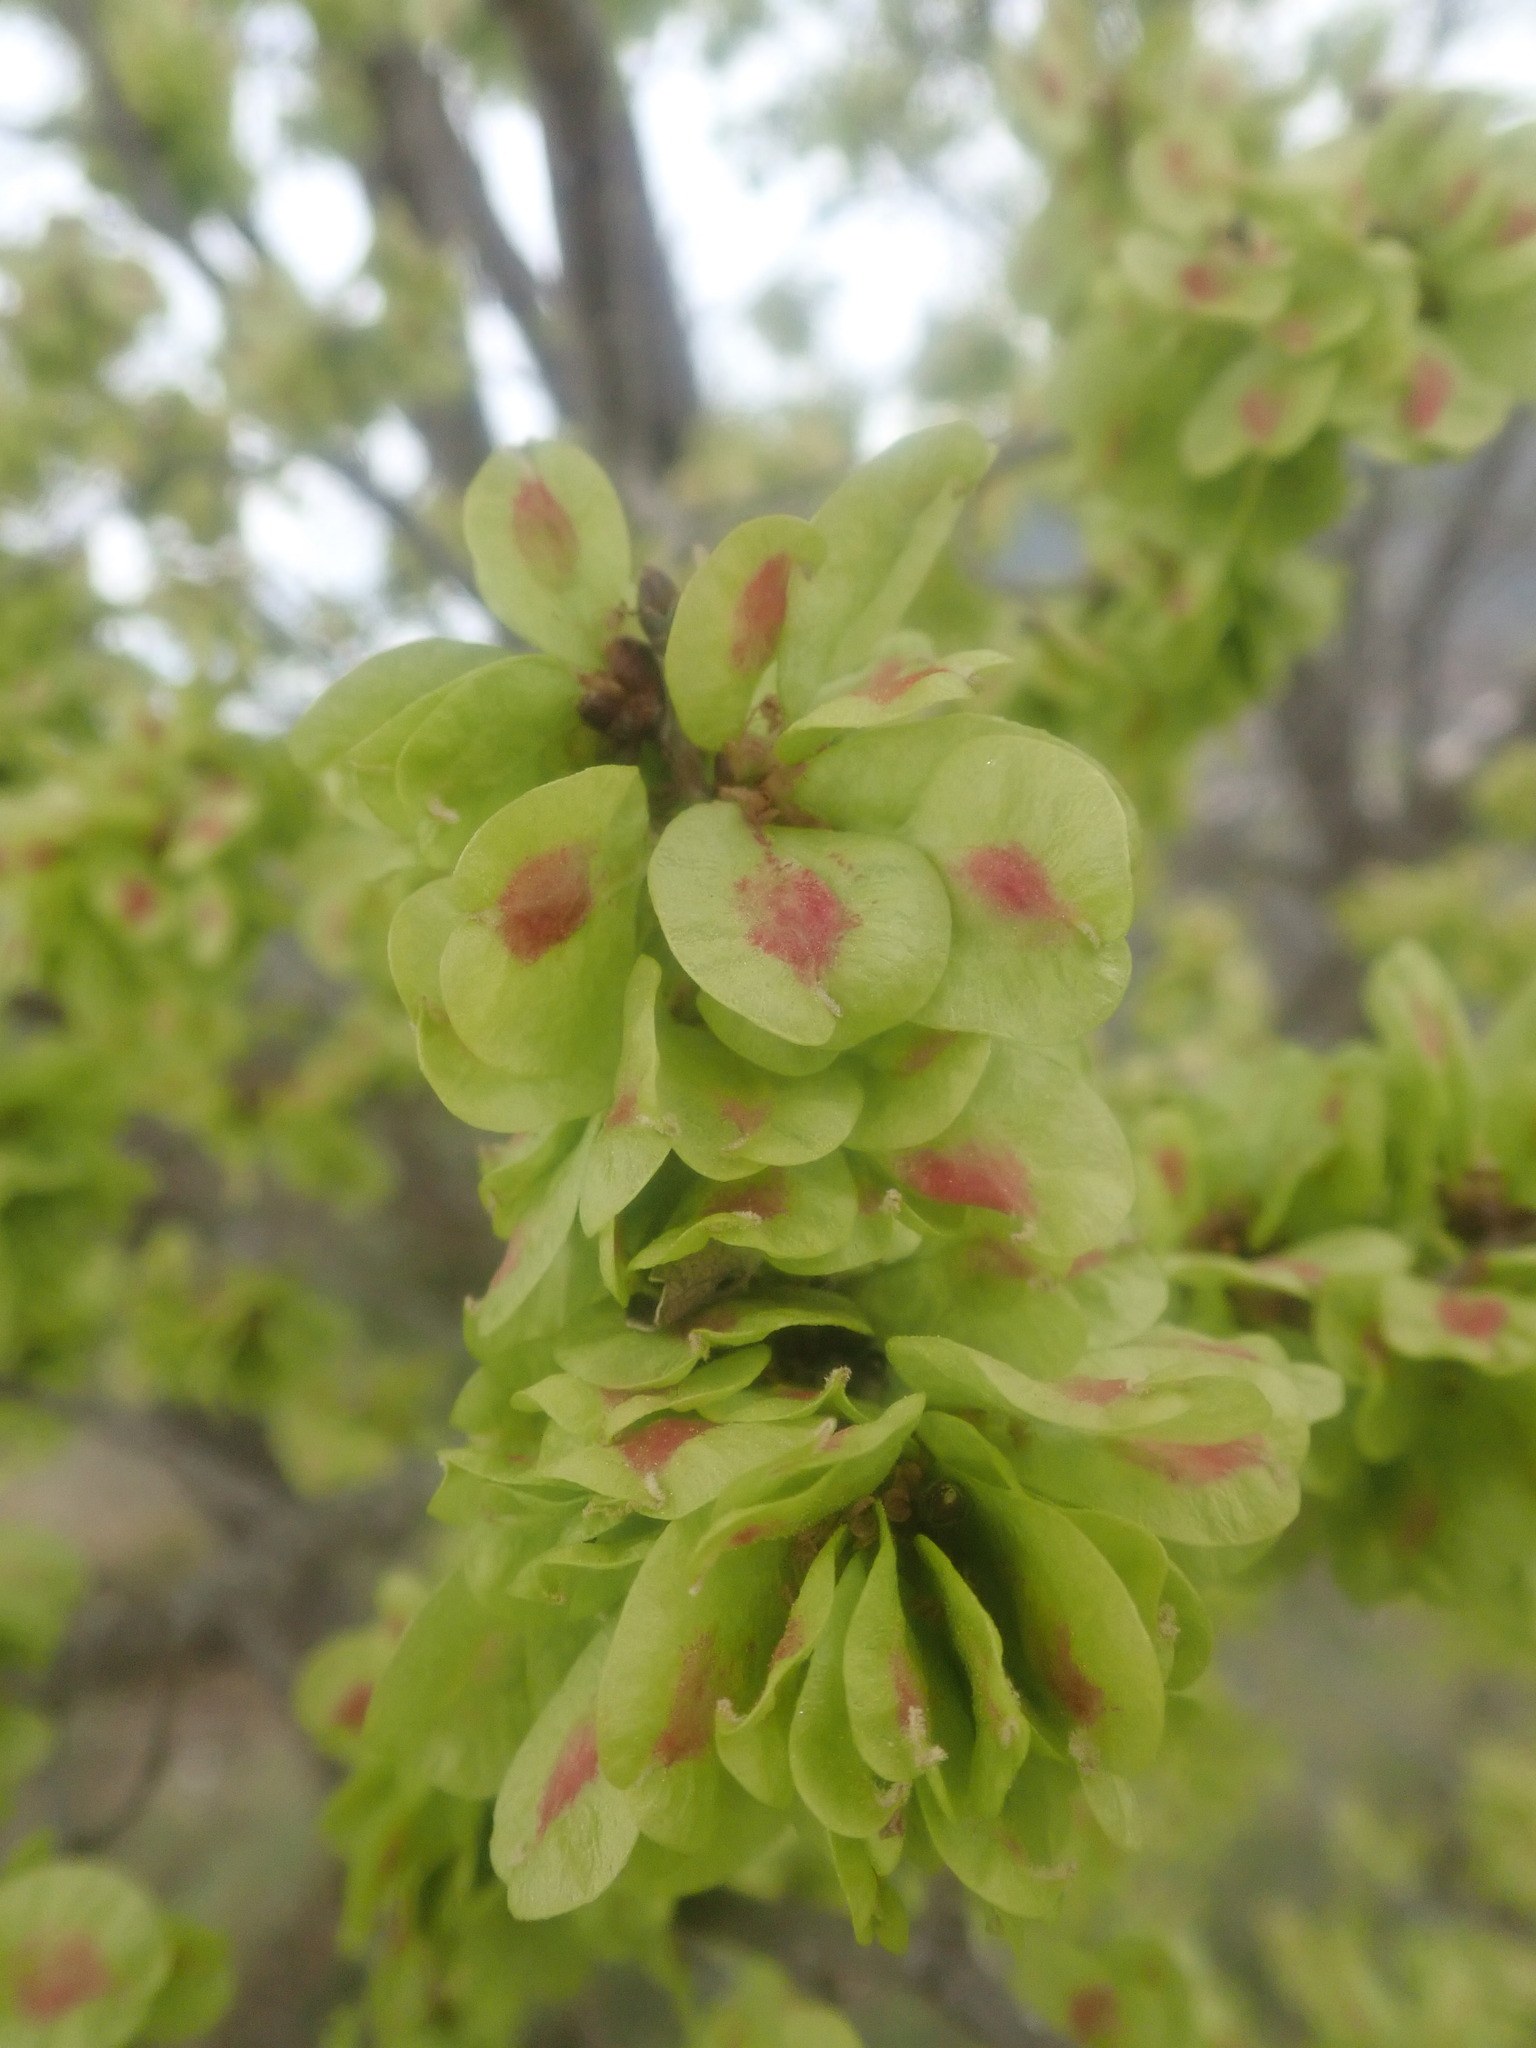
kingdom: Plantae
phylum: Tracheophyta
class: Magnoliopsida
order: Rosales
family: Ulmaceae
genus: Ulmus
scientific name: Ulmus minor
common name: Small-leaved elm
